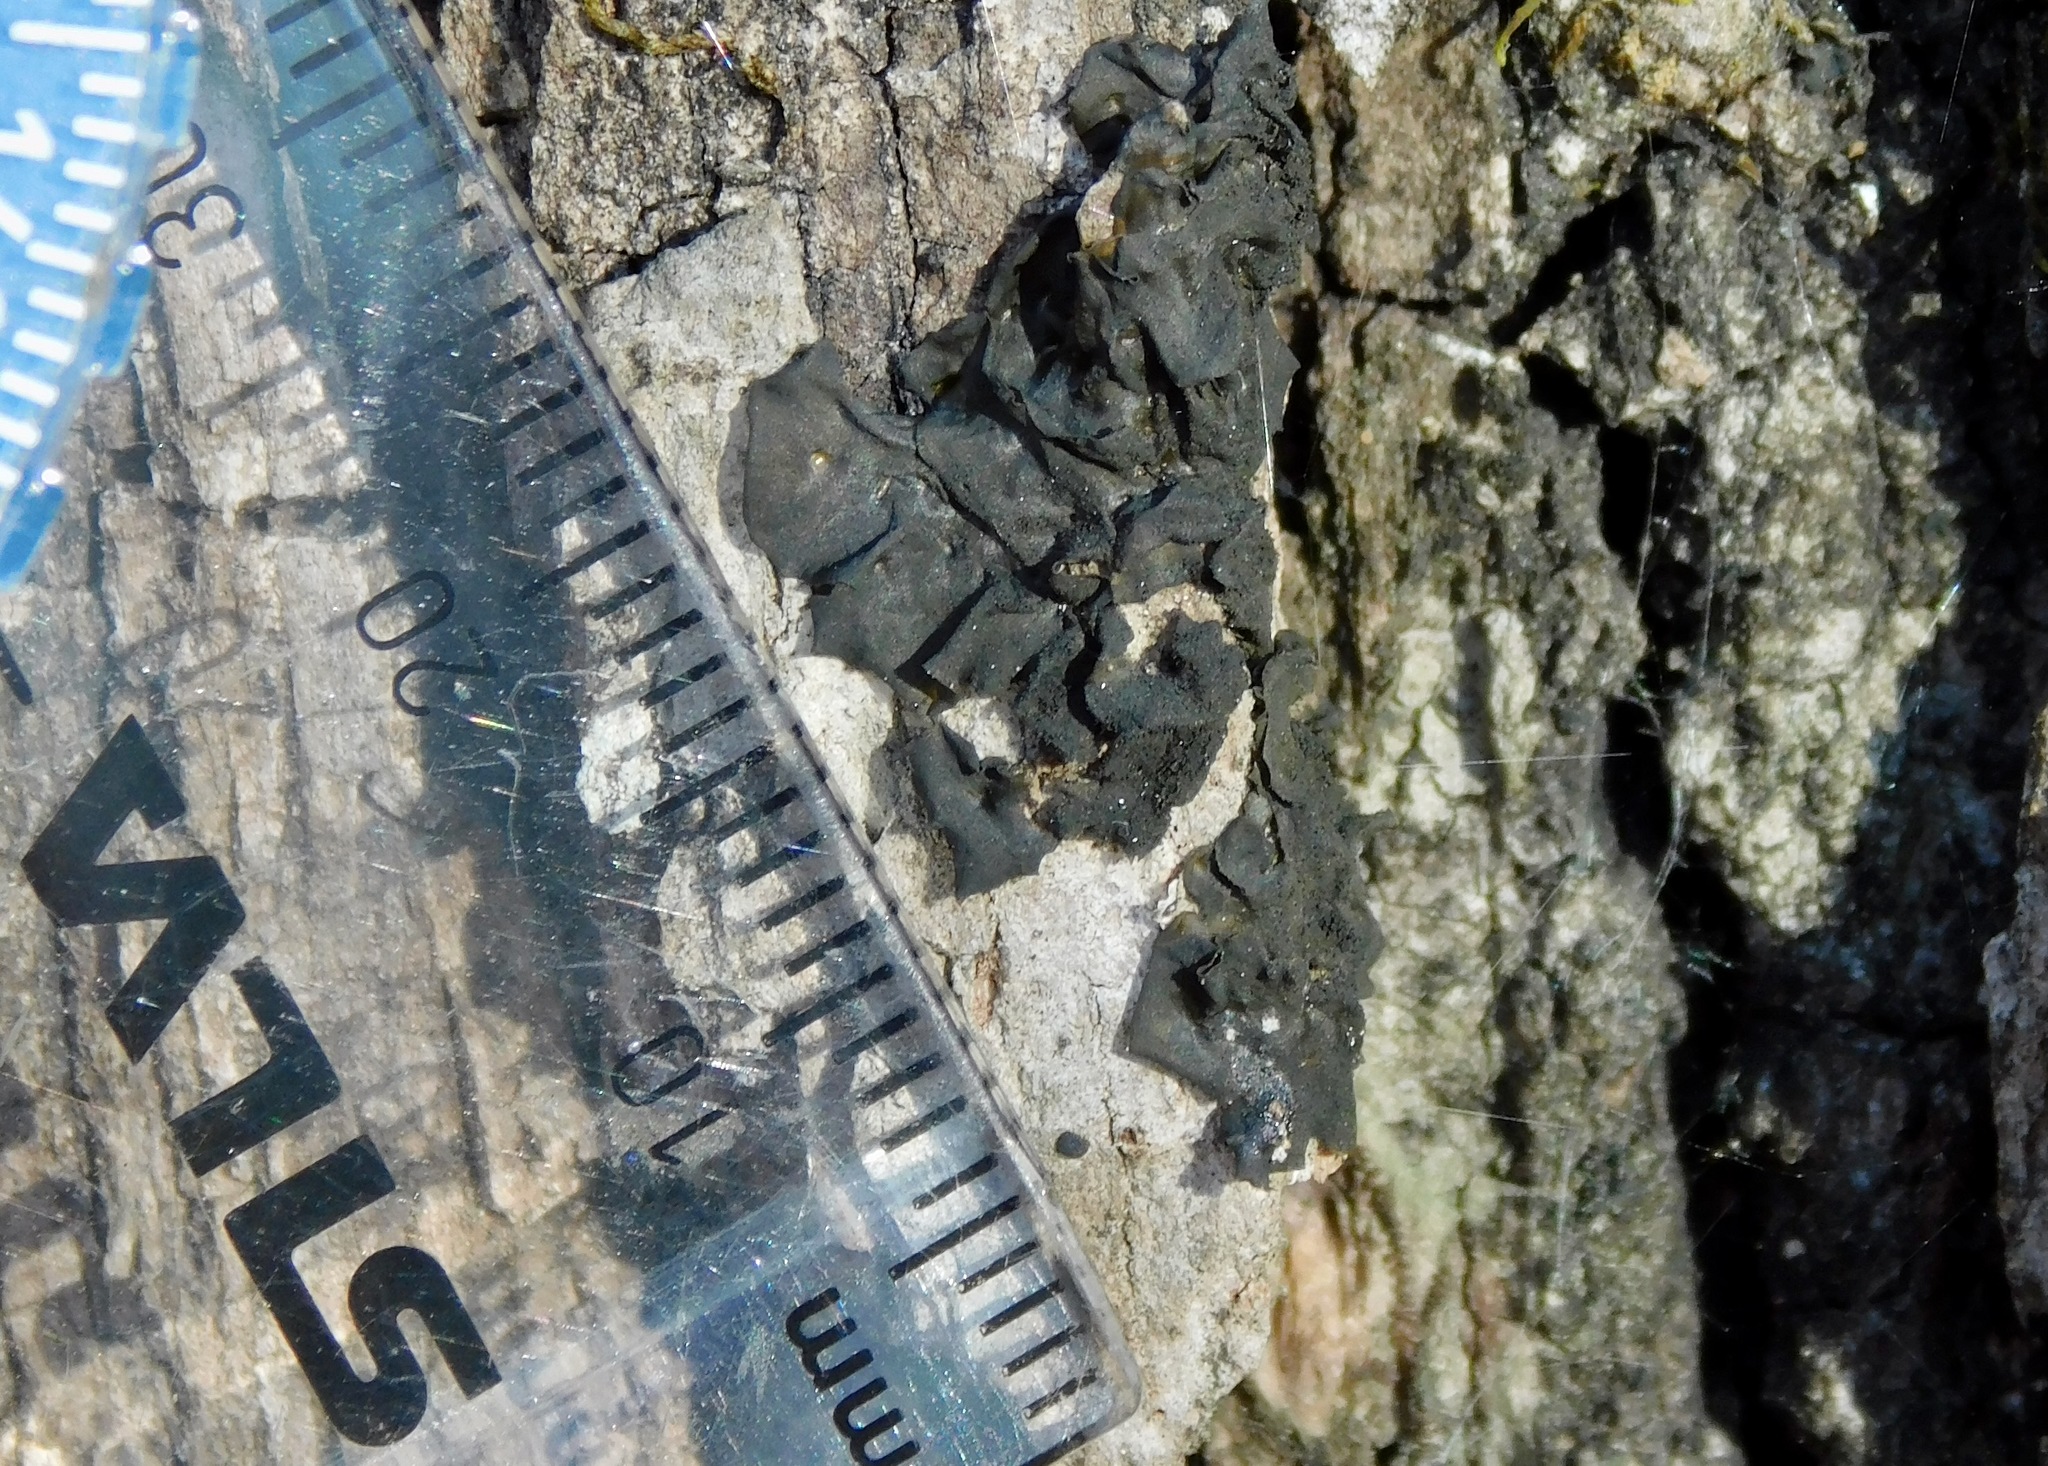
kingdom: Fungi
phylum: Ascomycota
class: Lecanoromycetes
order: Peltigerales
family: Collemataceae
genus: Collema
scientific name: Collema subflaccidum
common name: Tree jelly
